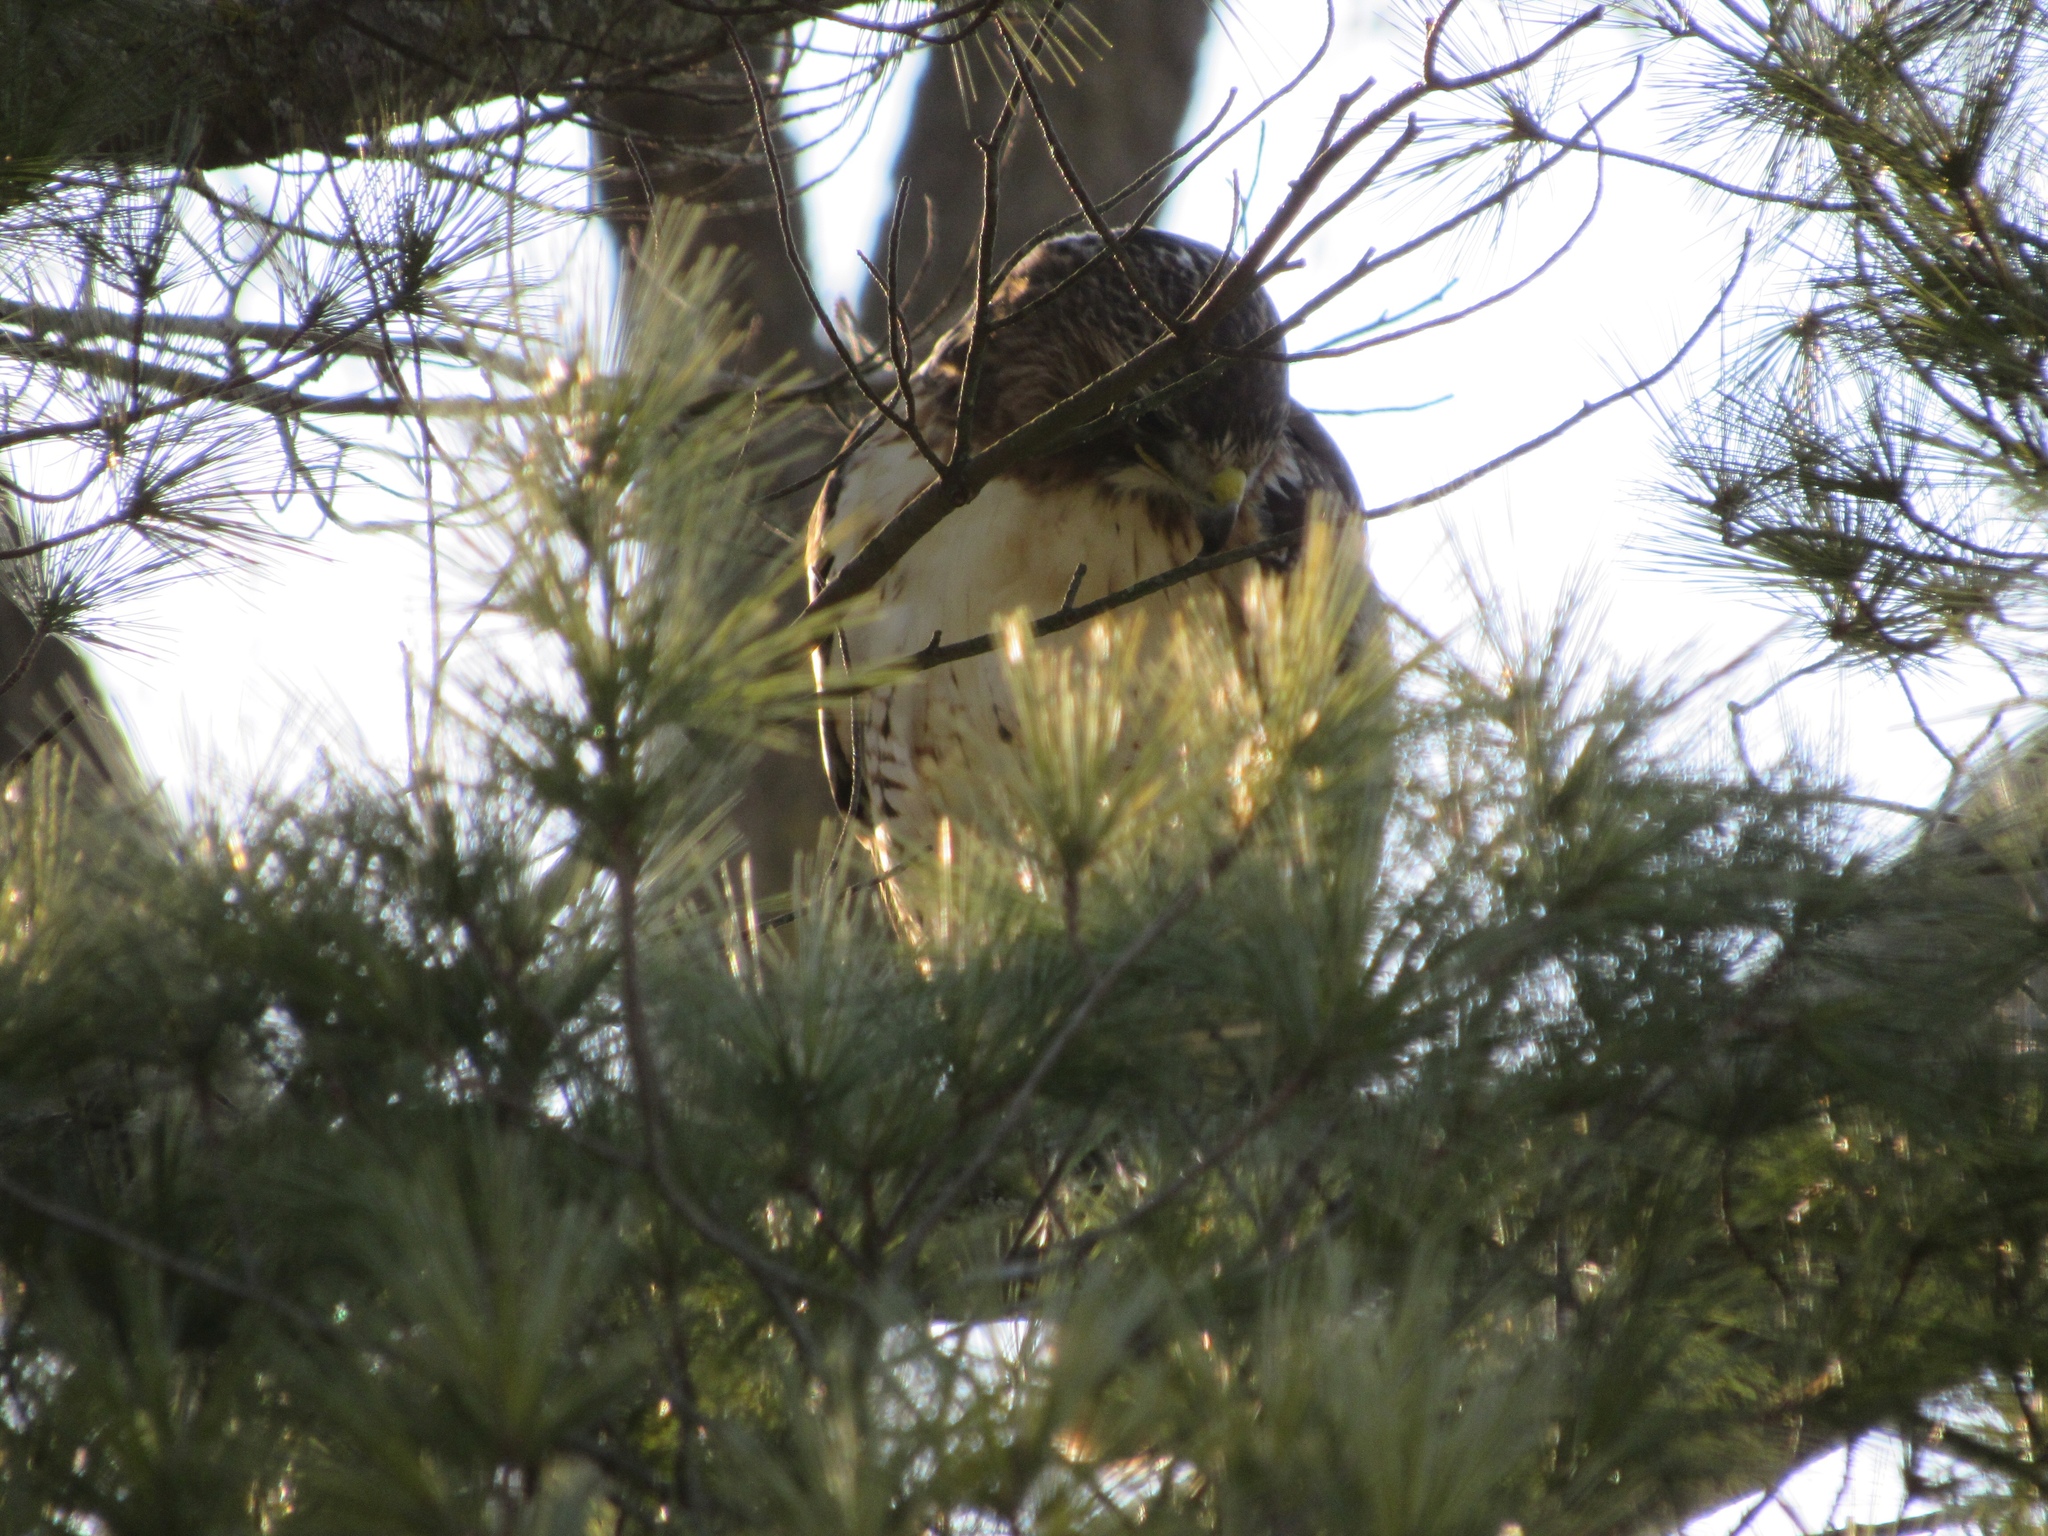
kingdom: Animalia
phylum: Chordata
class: Aves
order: Accipitriformes
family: Accipitridae
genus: Buteo
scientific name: Buteo jamaicensis
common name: Red-tailed hawk
